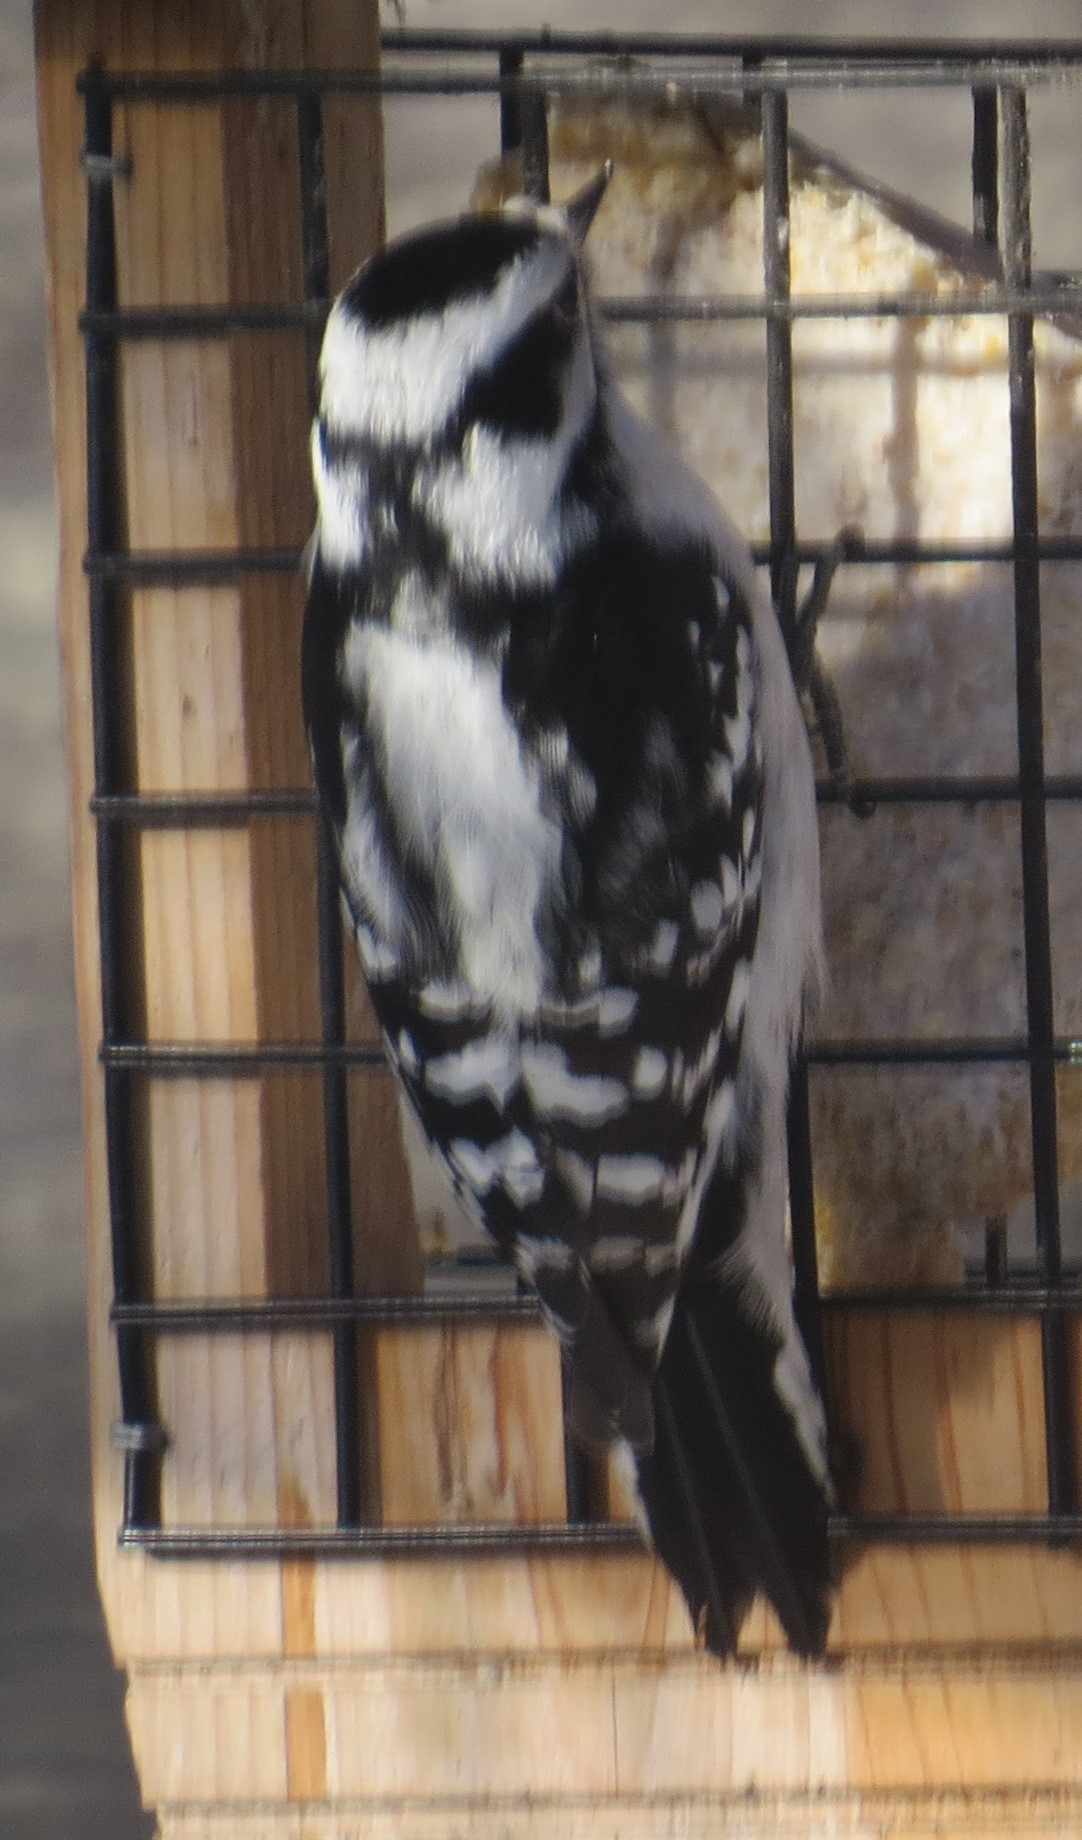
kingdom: Animalia
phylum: Chordata
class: Aves
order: Piciformes
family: Picidae
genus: Dryobates
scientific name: Dryobates pubescens
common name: Downy woodpecker
